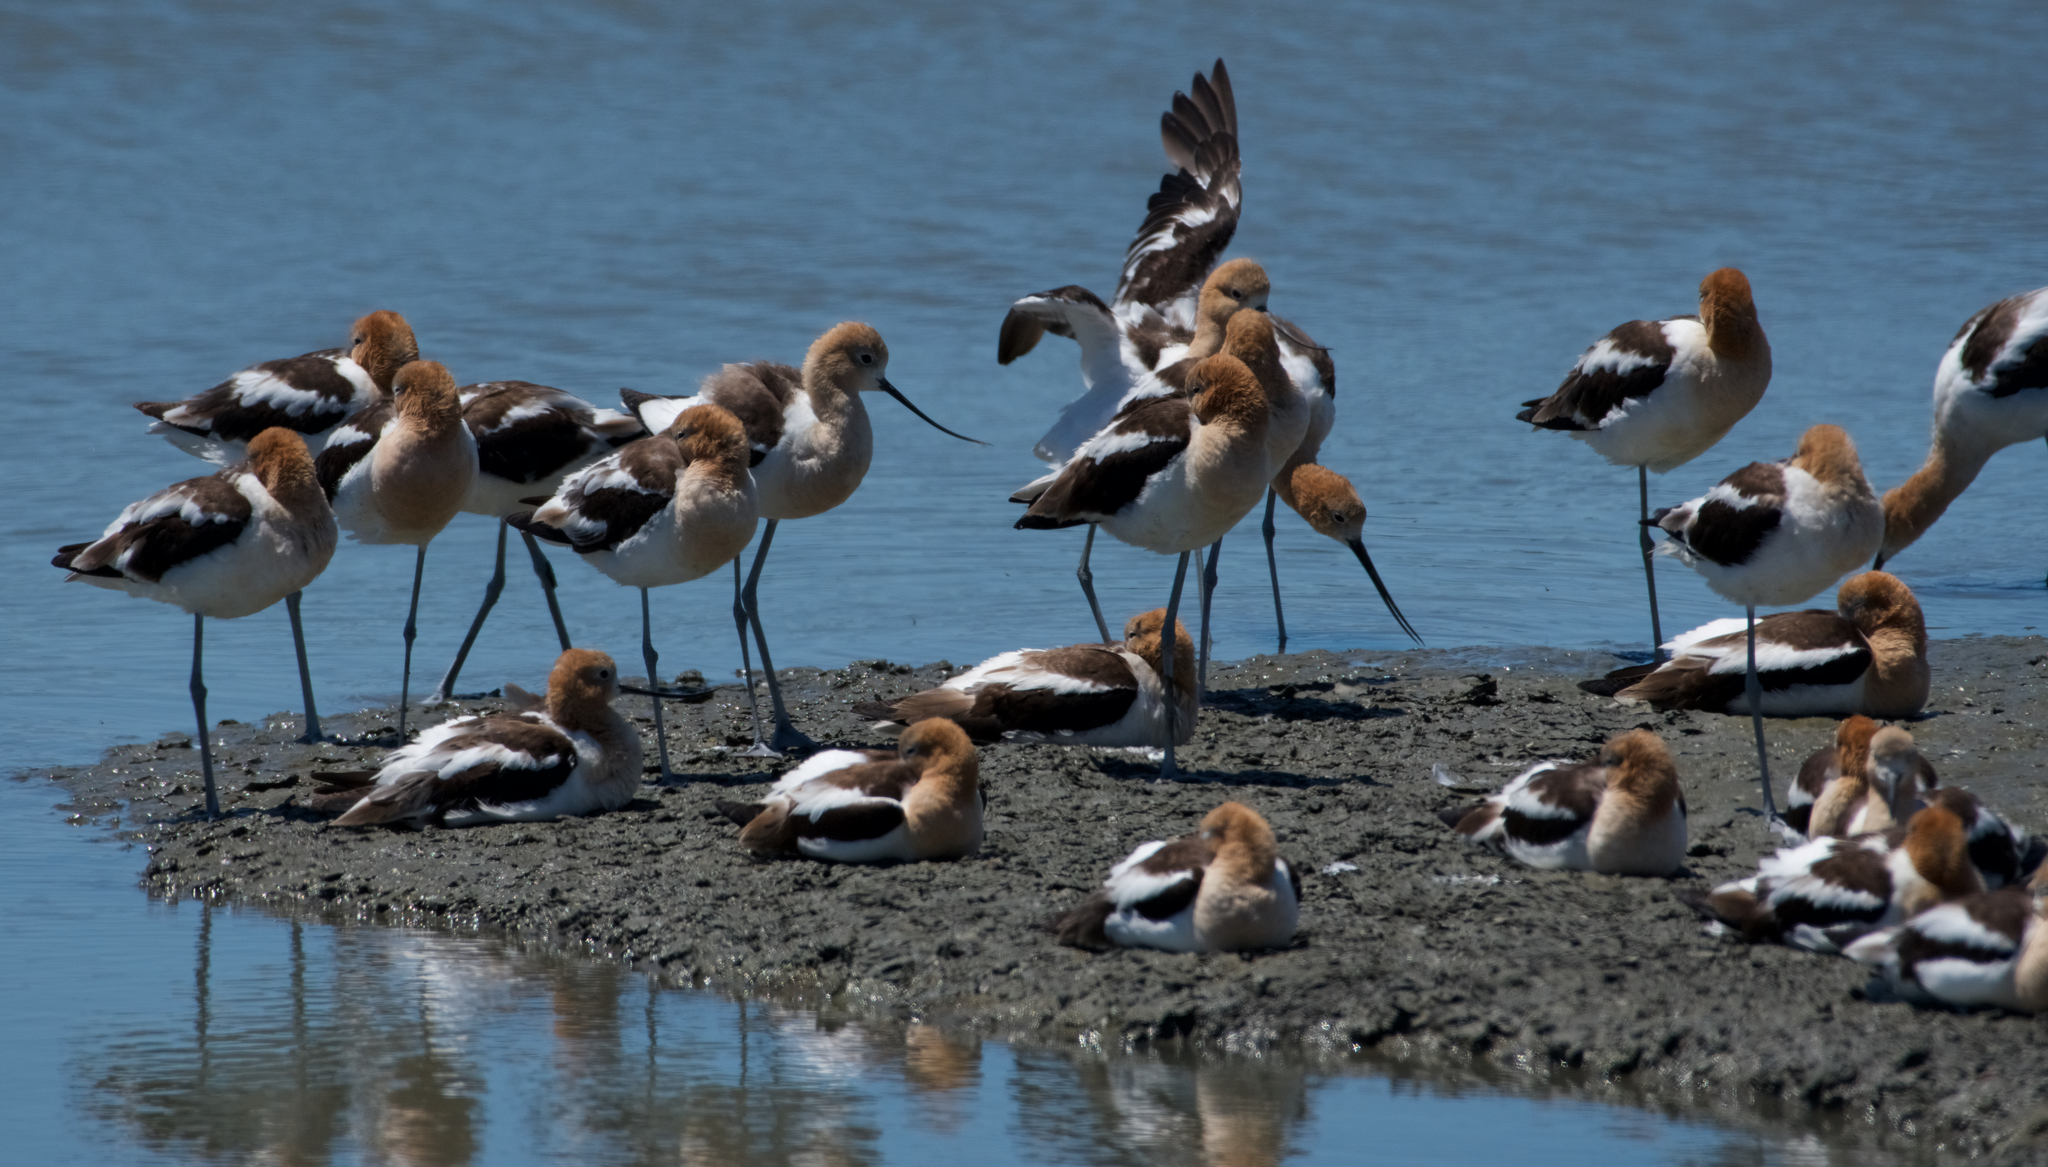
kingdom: Animalia
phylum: Chordata
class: Aves
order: Charadriiformes
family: Recurvirostridae
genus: Recurvirostra
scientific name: Recurvirostra americana
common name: American avocet
